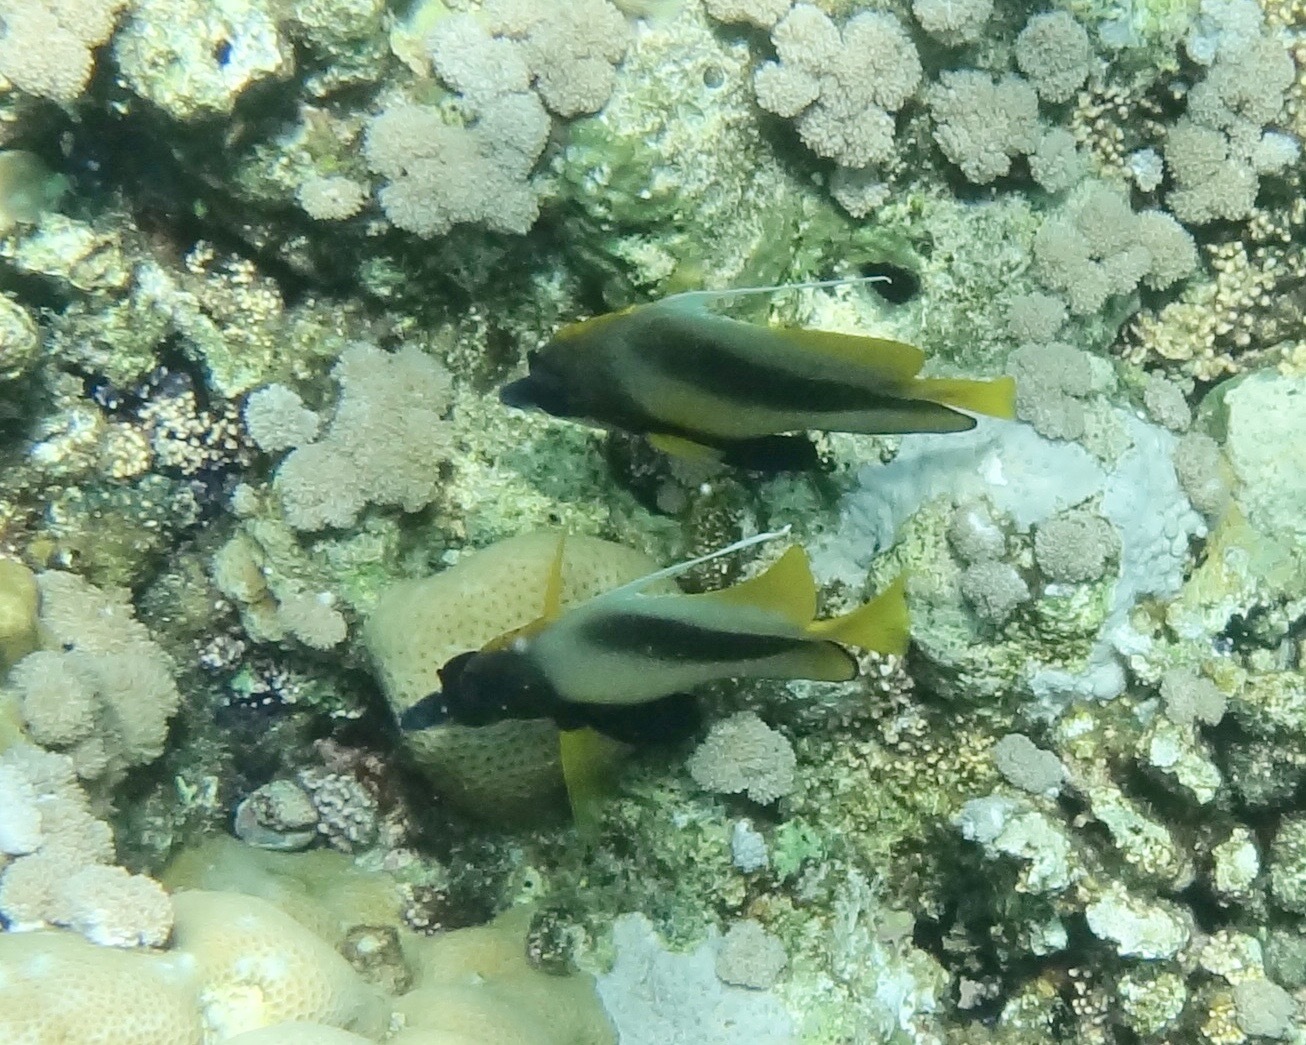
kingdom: Animalia
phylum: Chordata
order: Perciformes
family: Chaetodontidae
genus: Heniochus
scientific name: Heniochus intermedius
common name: Red sea bannerfish
